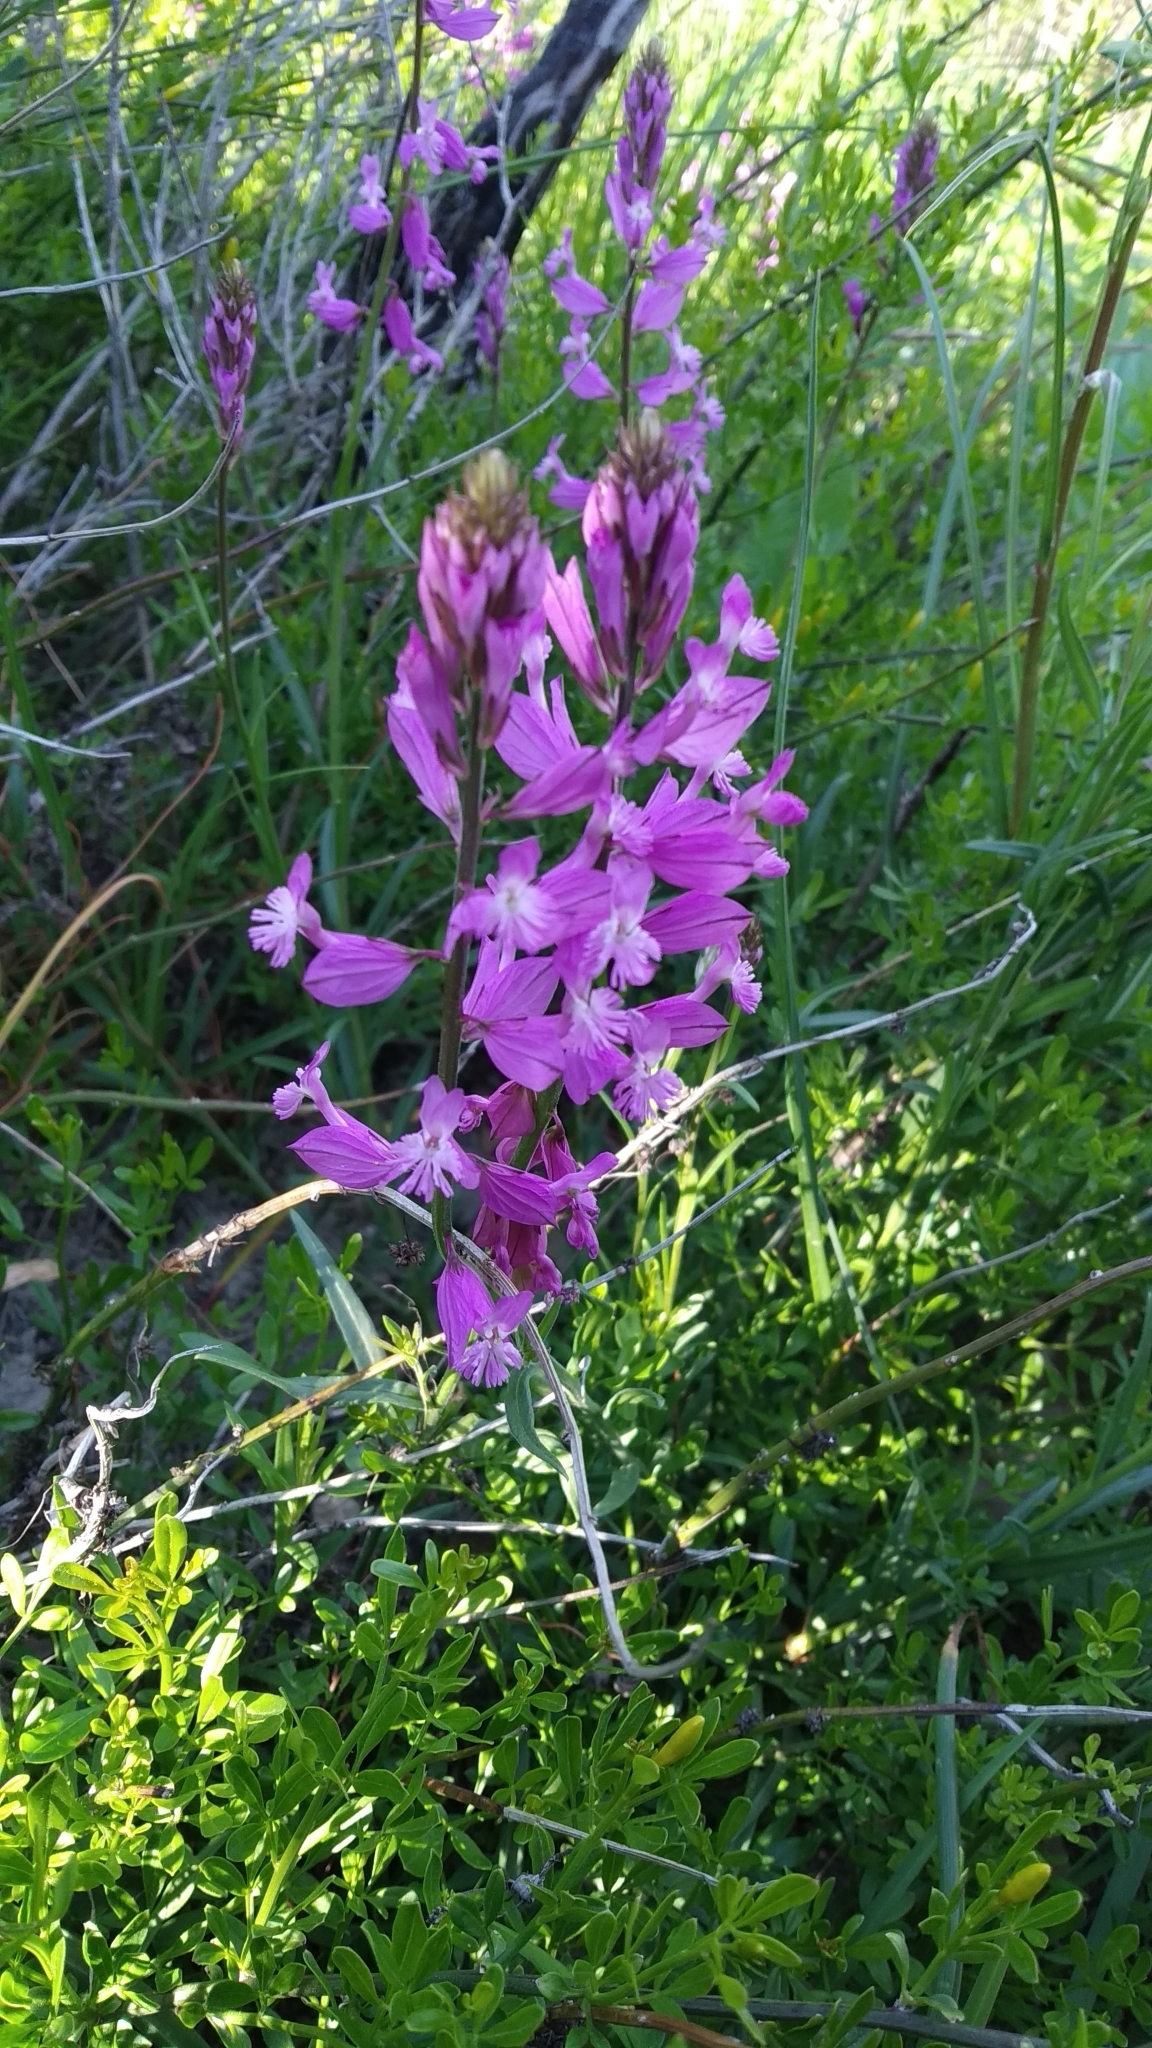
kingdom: Plantae
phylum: Tracheophyta
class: Magnoliopsida
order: Fabales
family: Polygalaceae
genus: Polygala
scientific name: Polygala major
